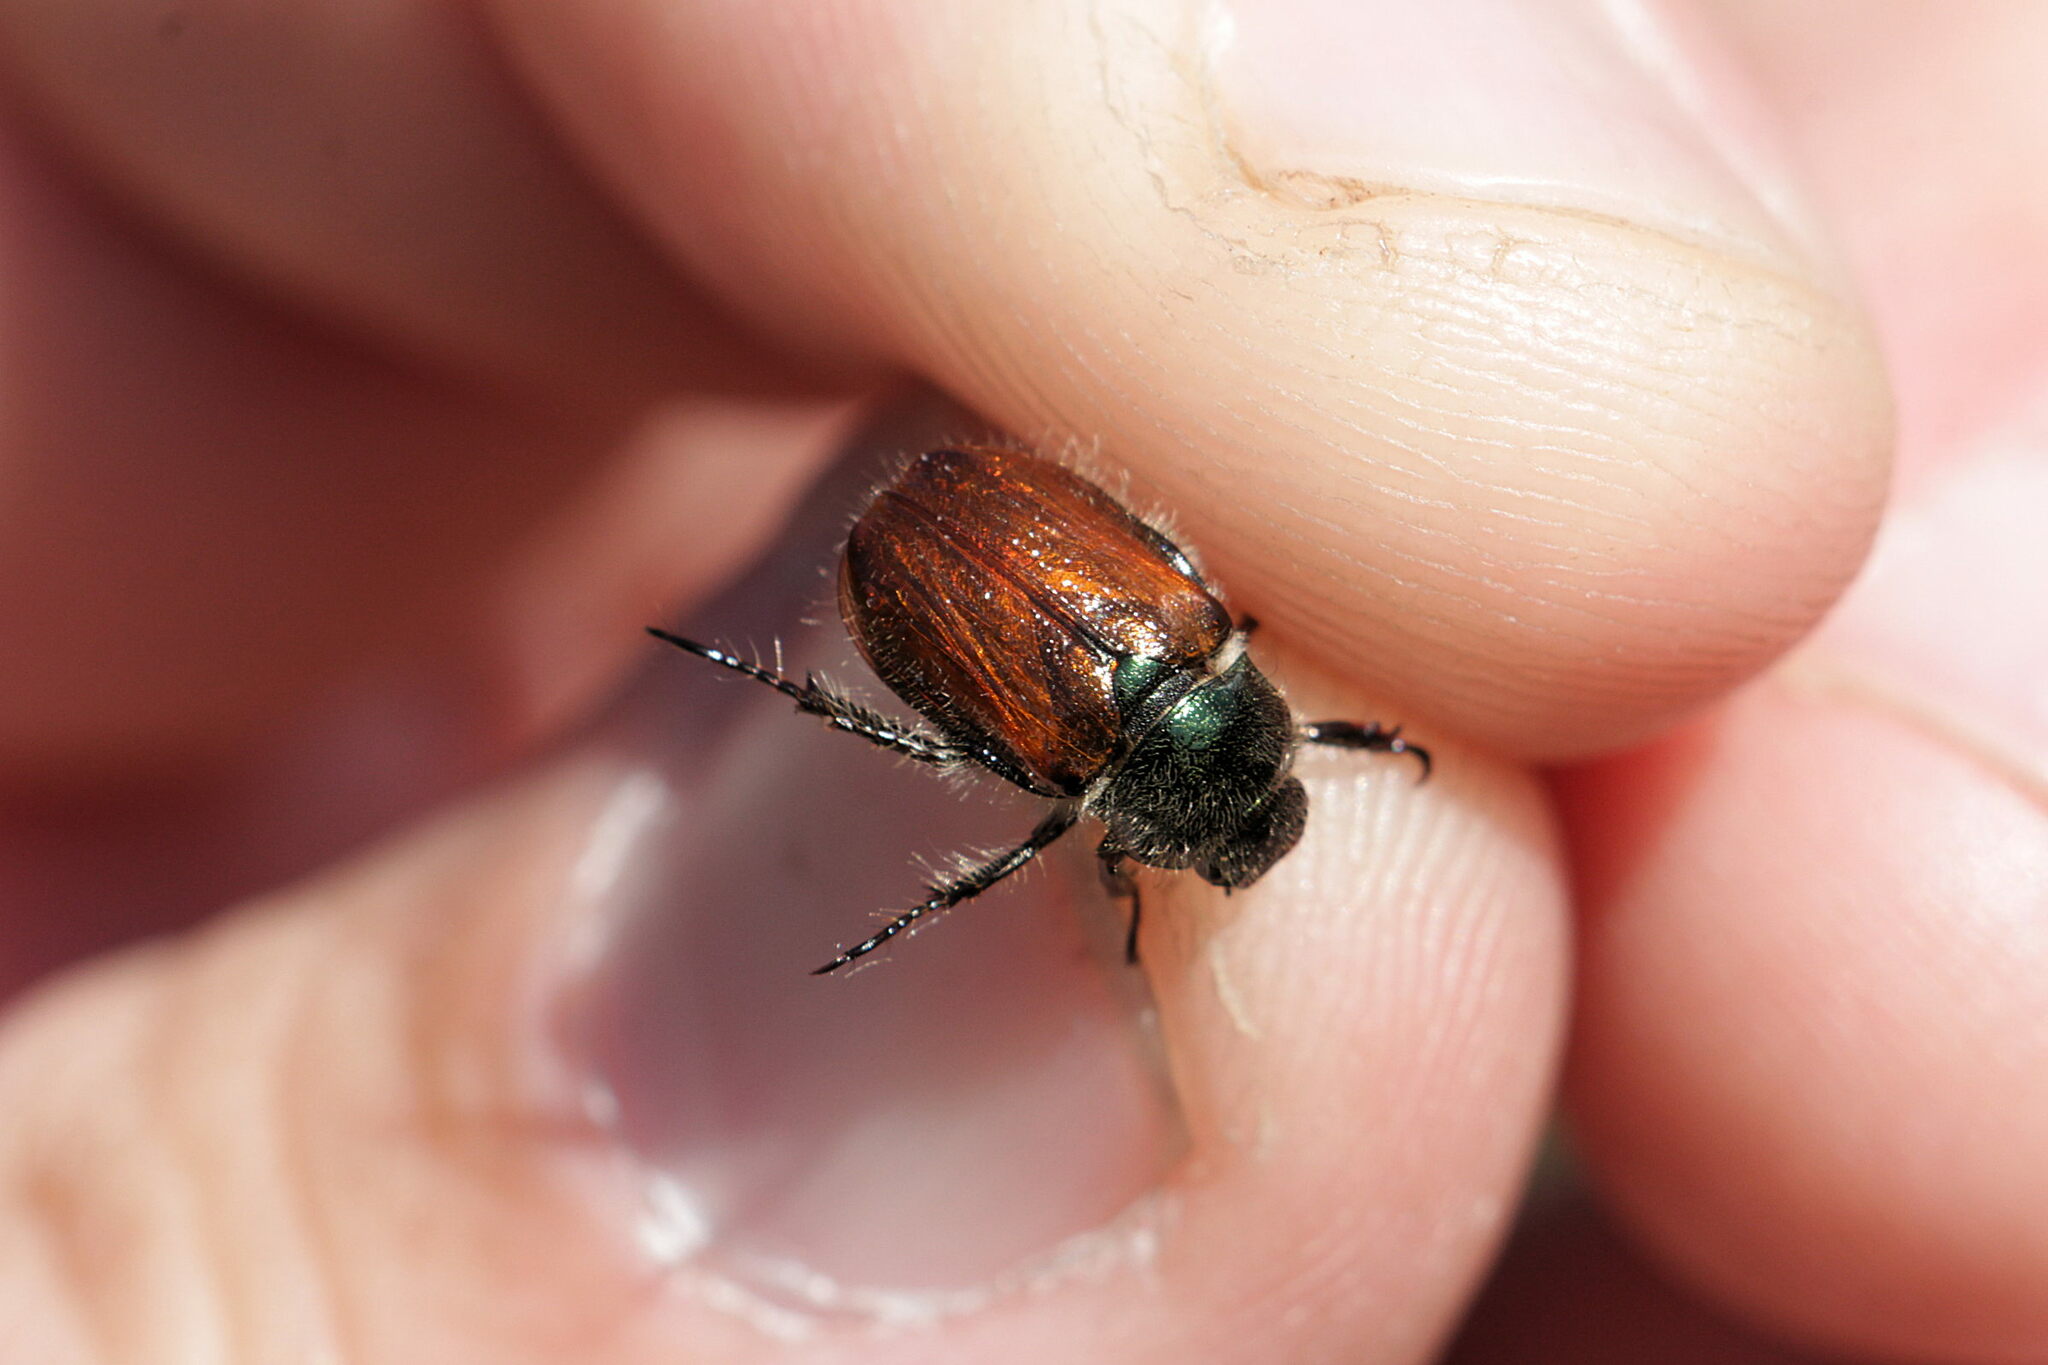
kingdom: Animalia
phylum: Arthropoda
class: Insecta
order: Coleoptera
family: Scarabaeidae
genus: Phyllopertha
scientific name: Phyllopertha horticola
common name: Garden chafer
